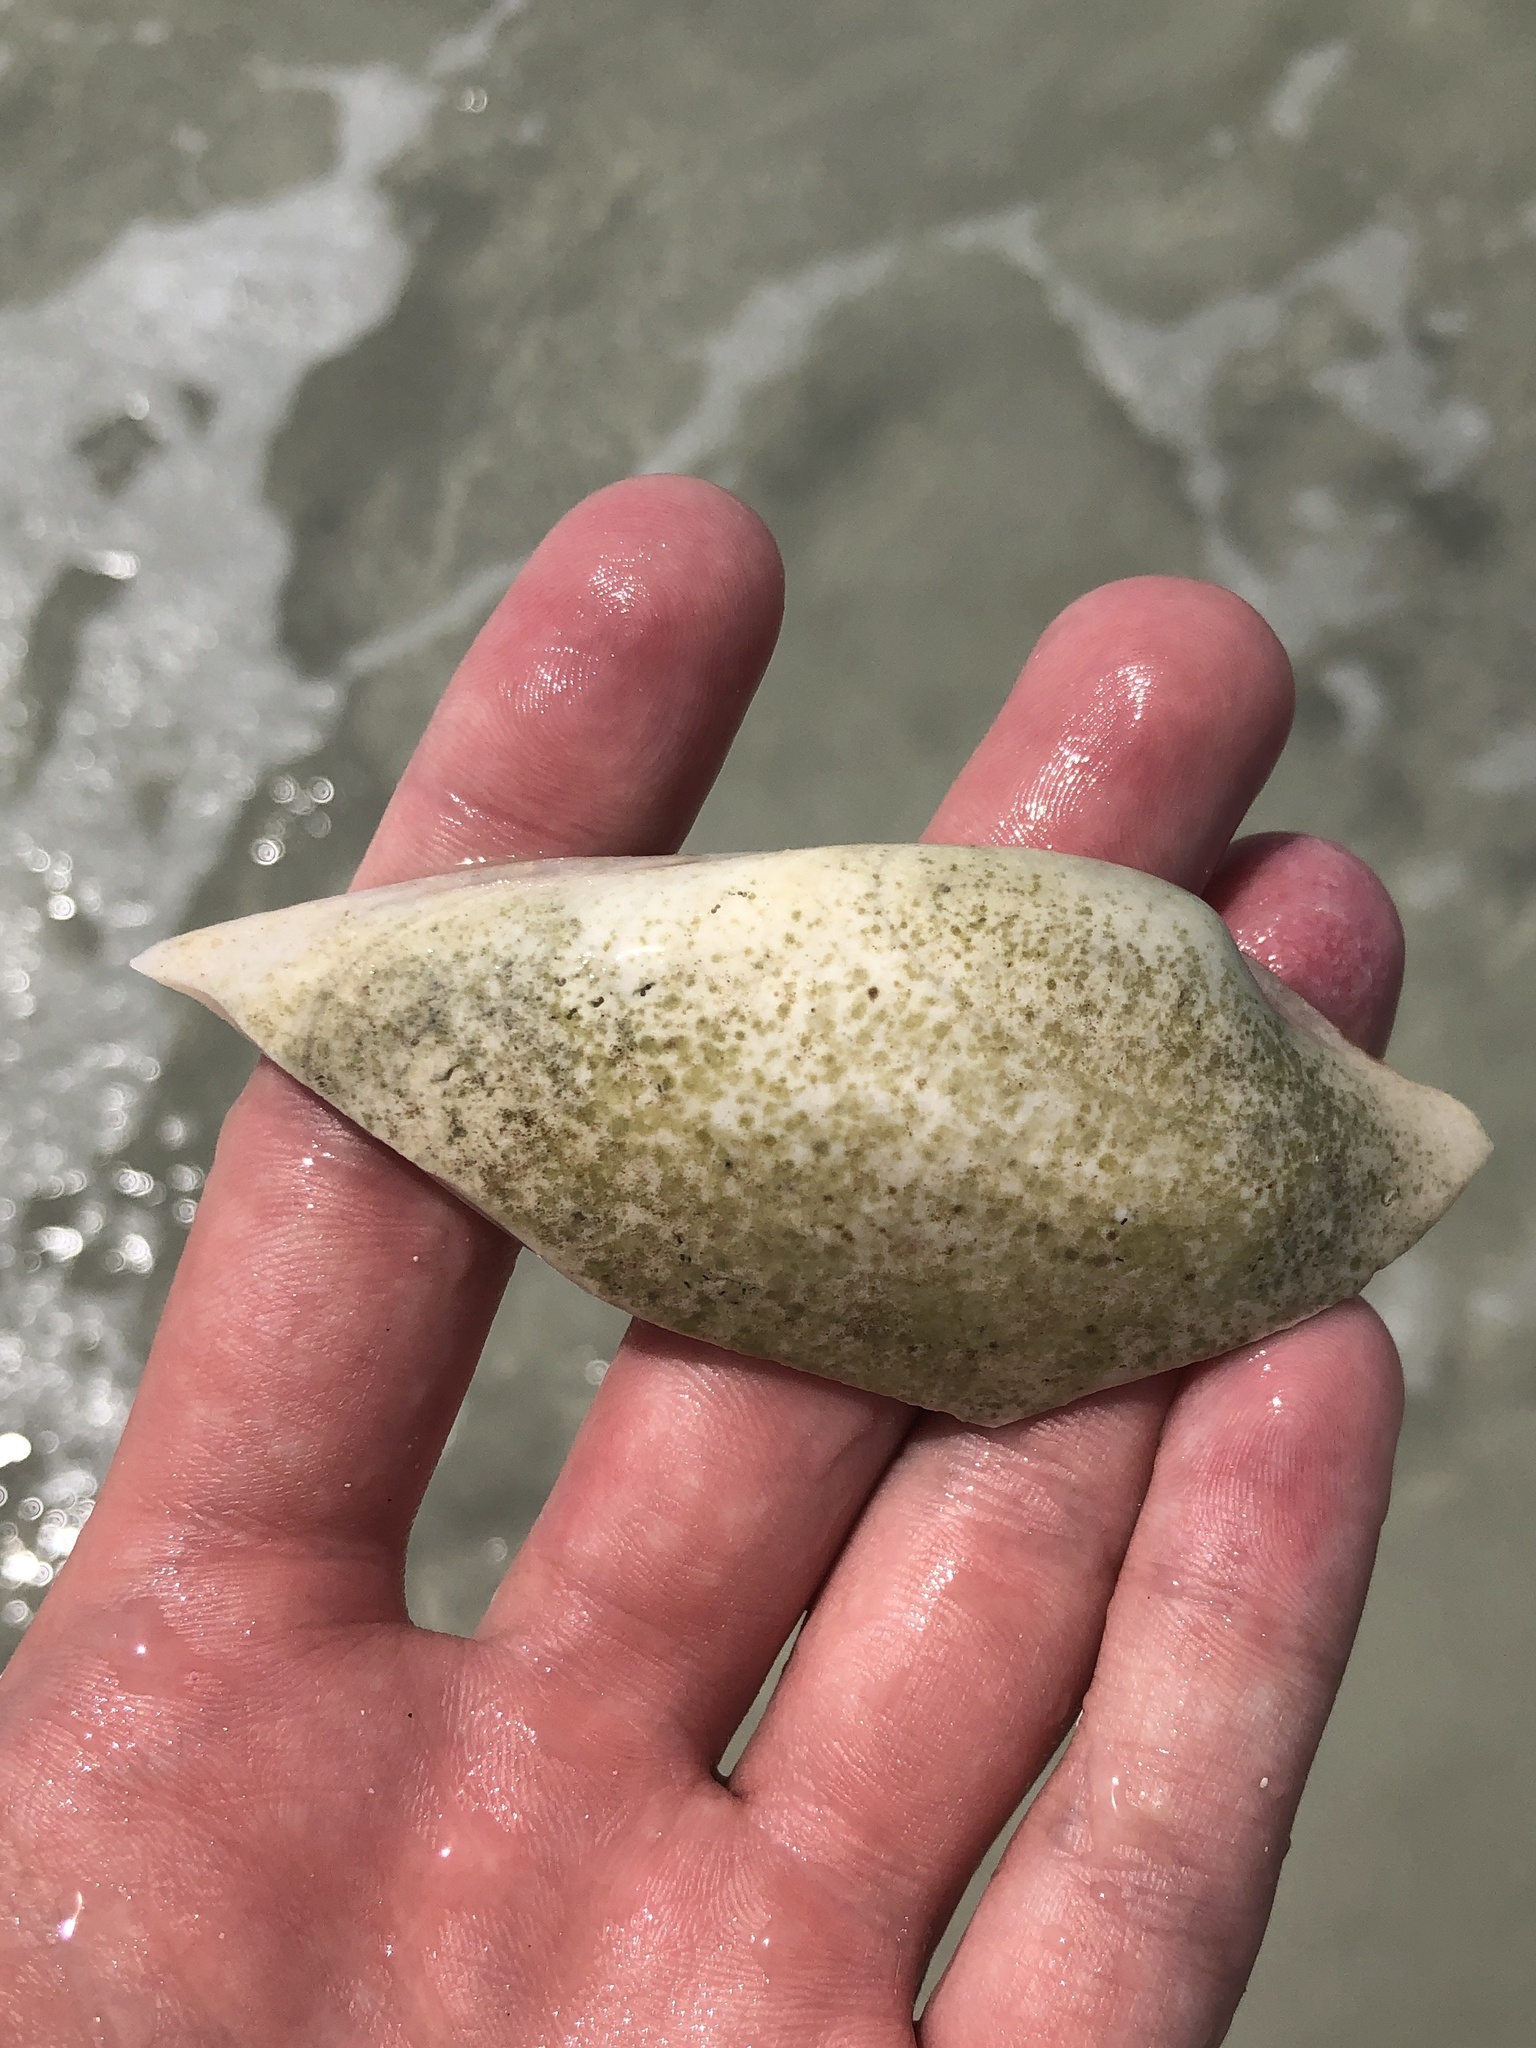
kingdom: Animalia
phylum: Mollusca
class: Bivalvia
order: Venerida
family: Veneridae
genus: Macrocallista
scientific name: Macrocallista nimbosa
